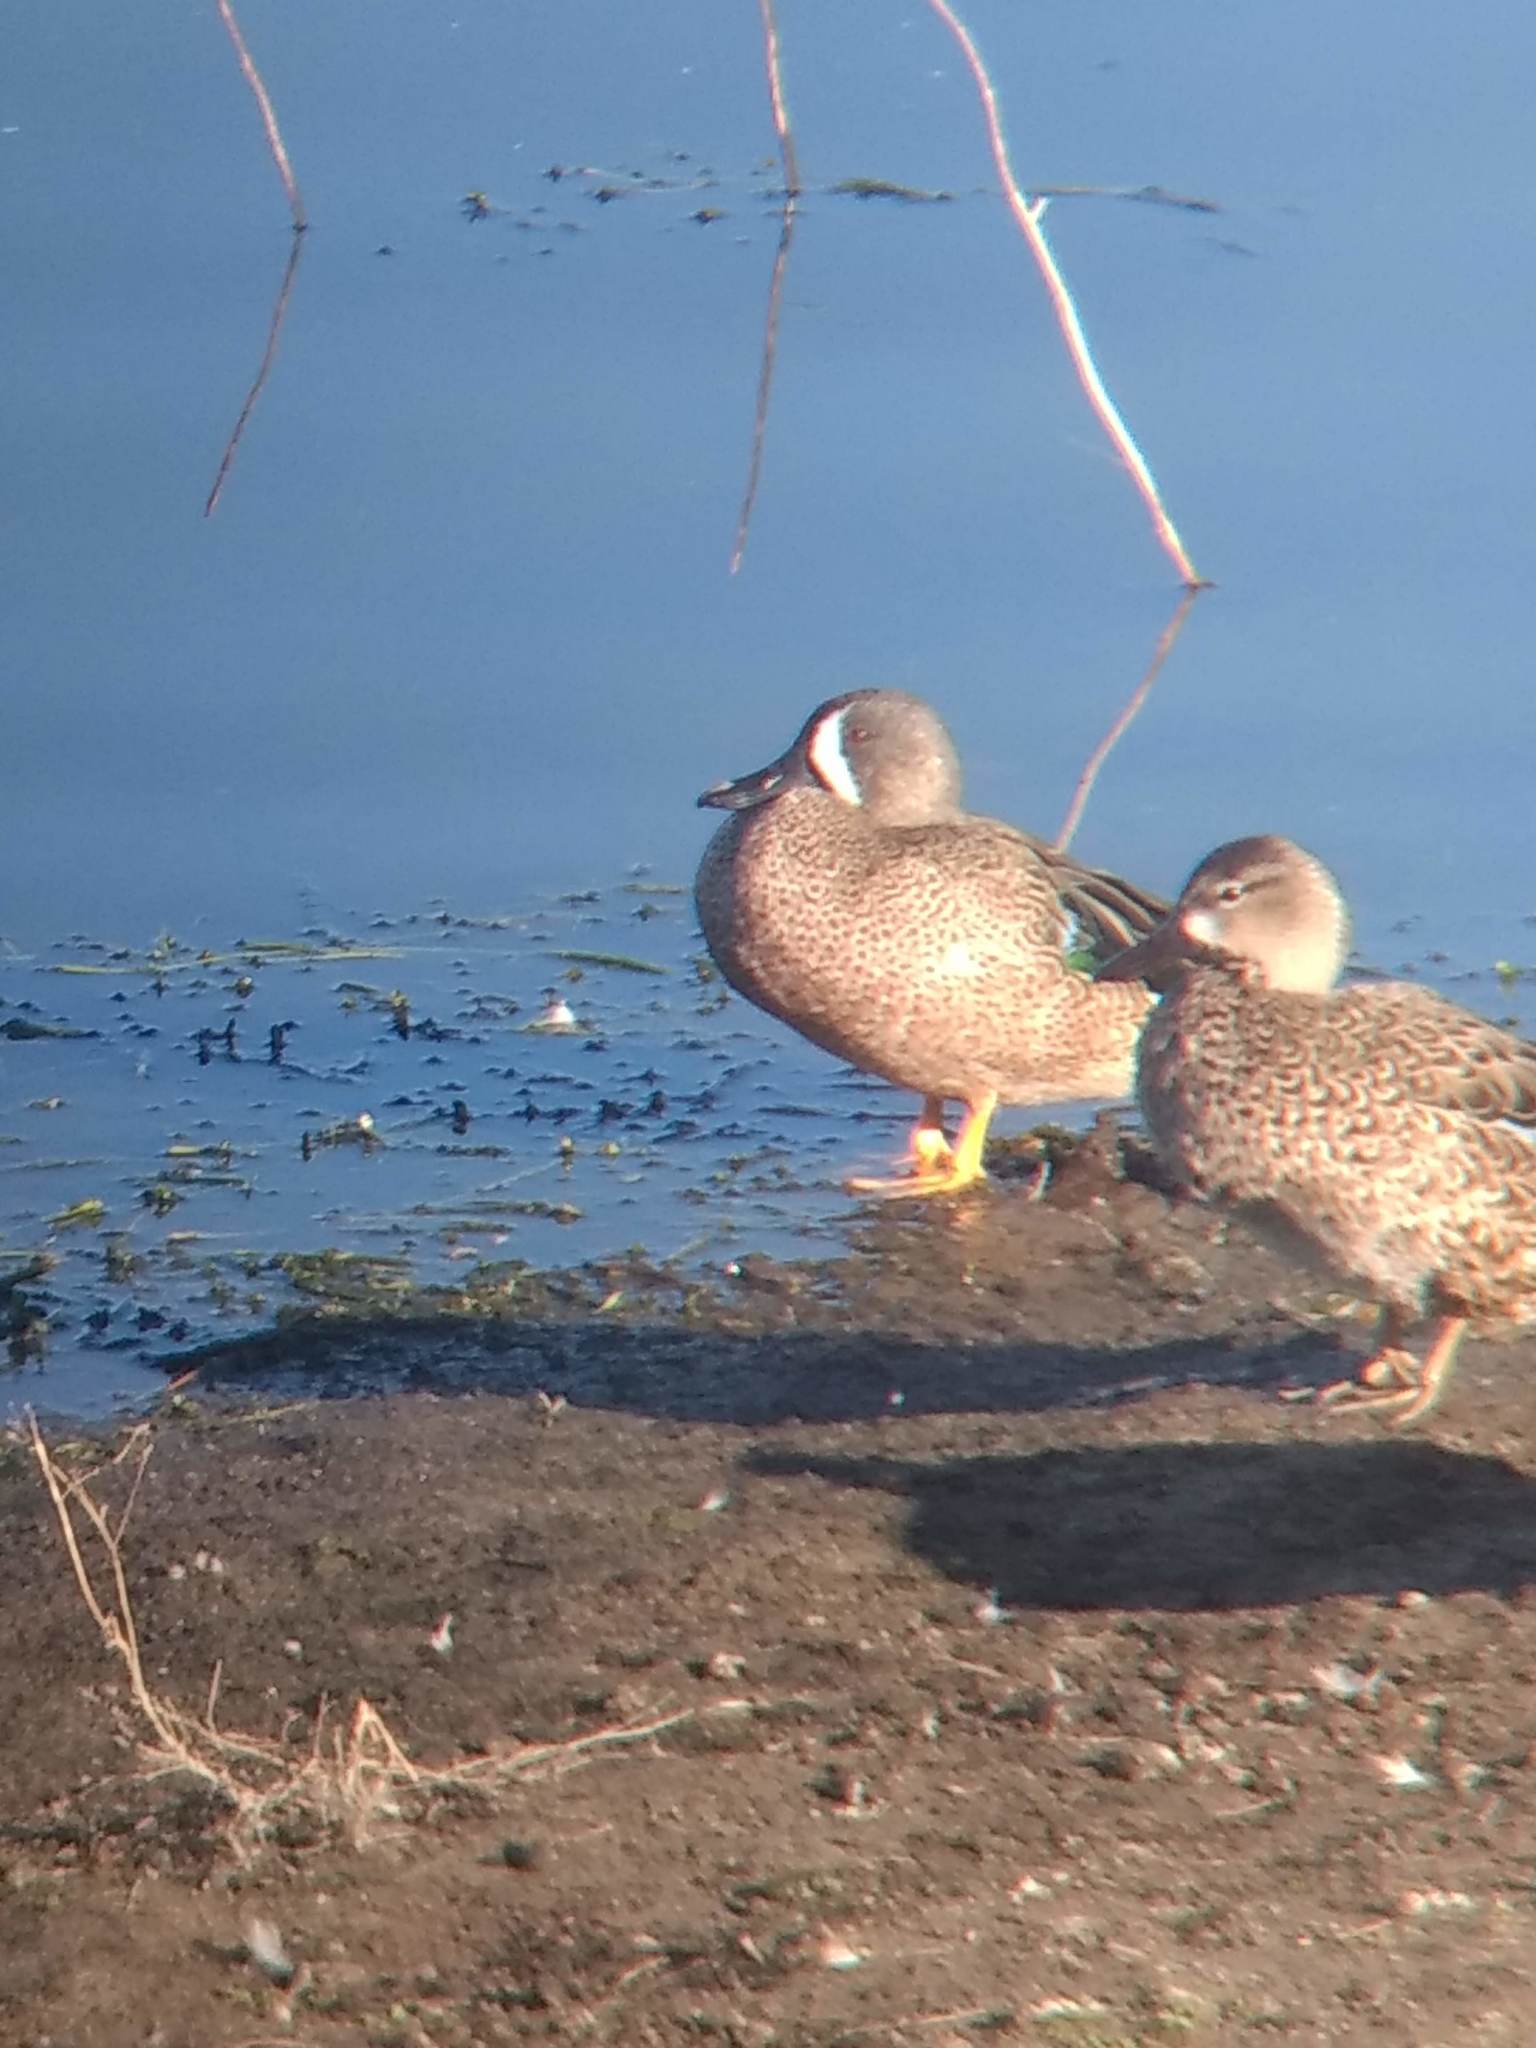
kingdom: Animalia
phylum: Chordata
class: Aves
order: Anseriformes
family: Anatidae
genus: Spatula
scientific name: Spatula discors
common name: Blue-winged teal
